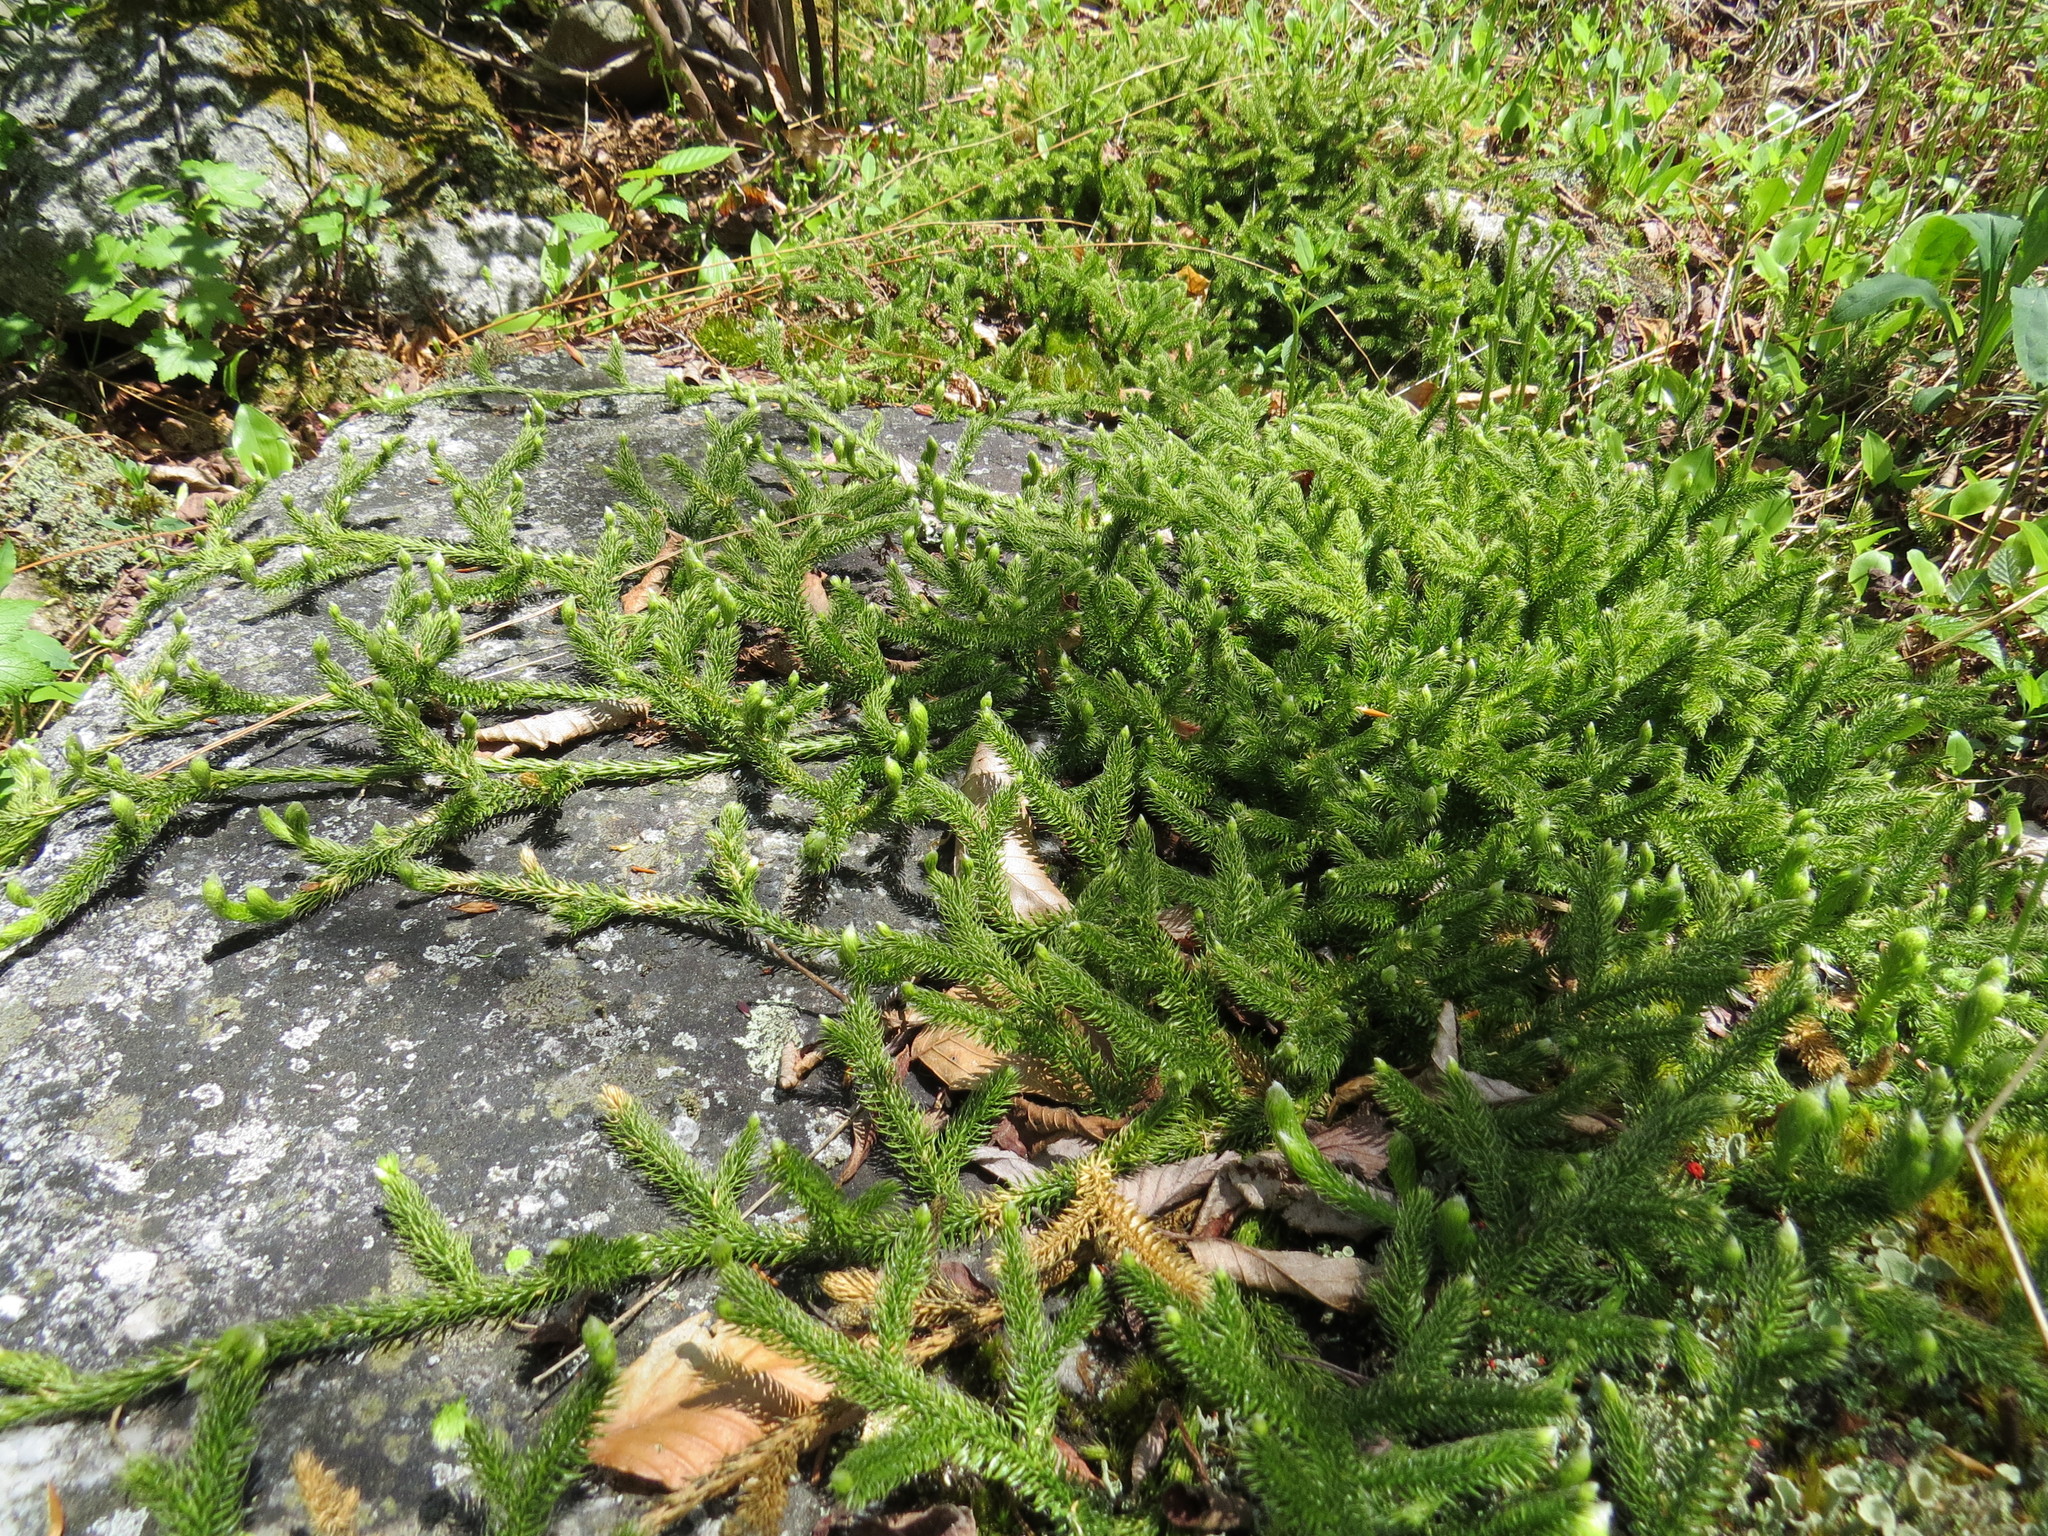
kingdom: Plantae
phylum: Tracheophyta
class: Lycopodiopsida
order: Lycopodiales
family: Lycopodiaceae
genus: Lycopodium
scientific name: Lycopodium clavatum
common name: Stag's-horn clubmoss
